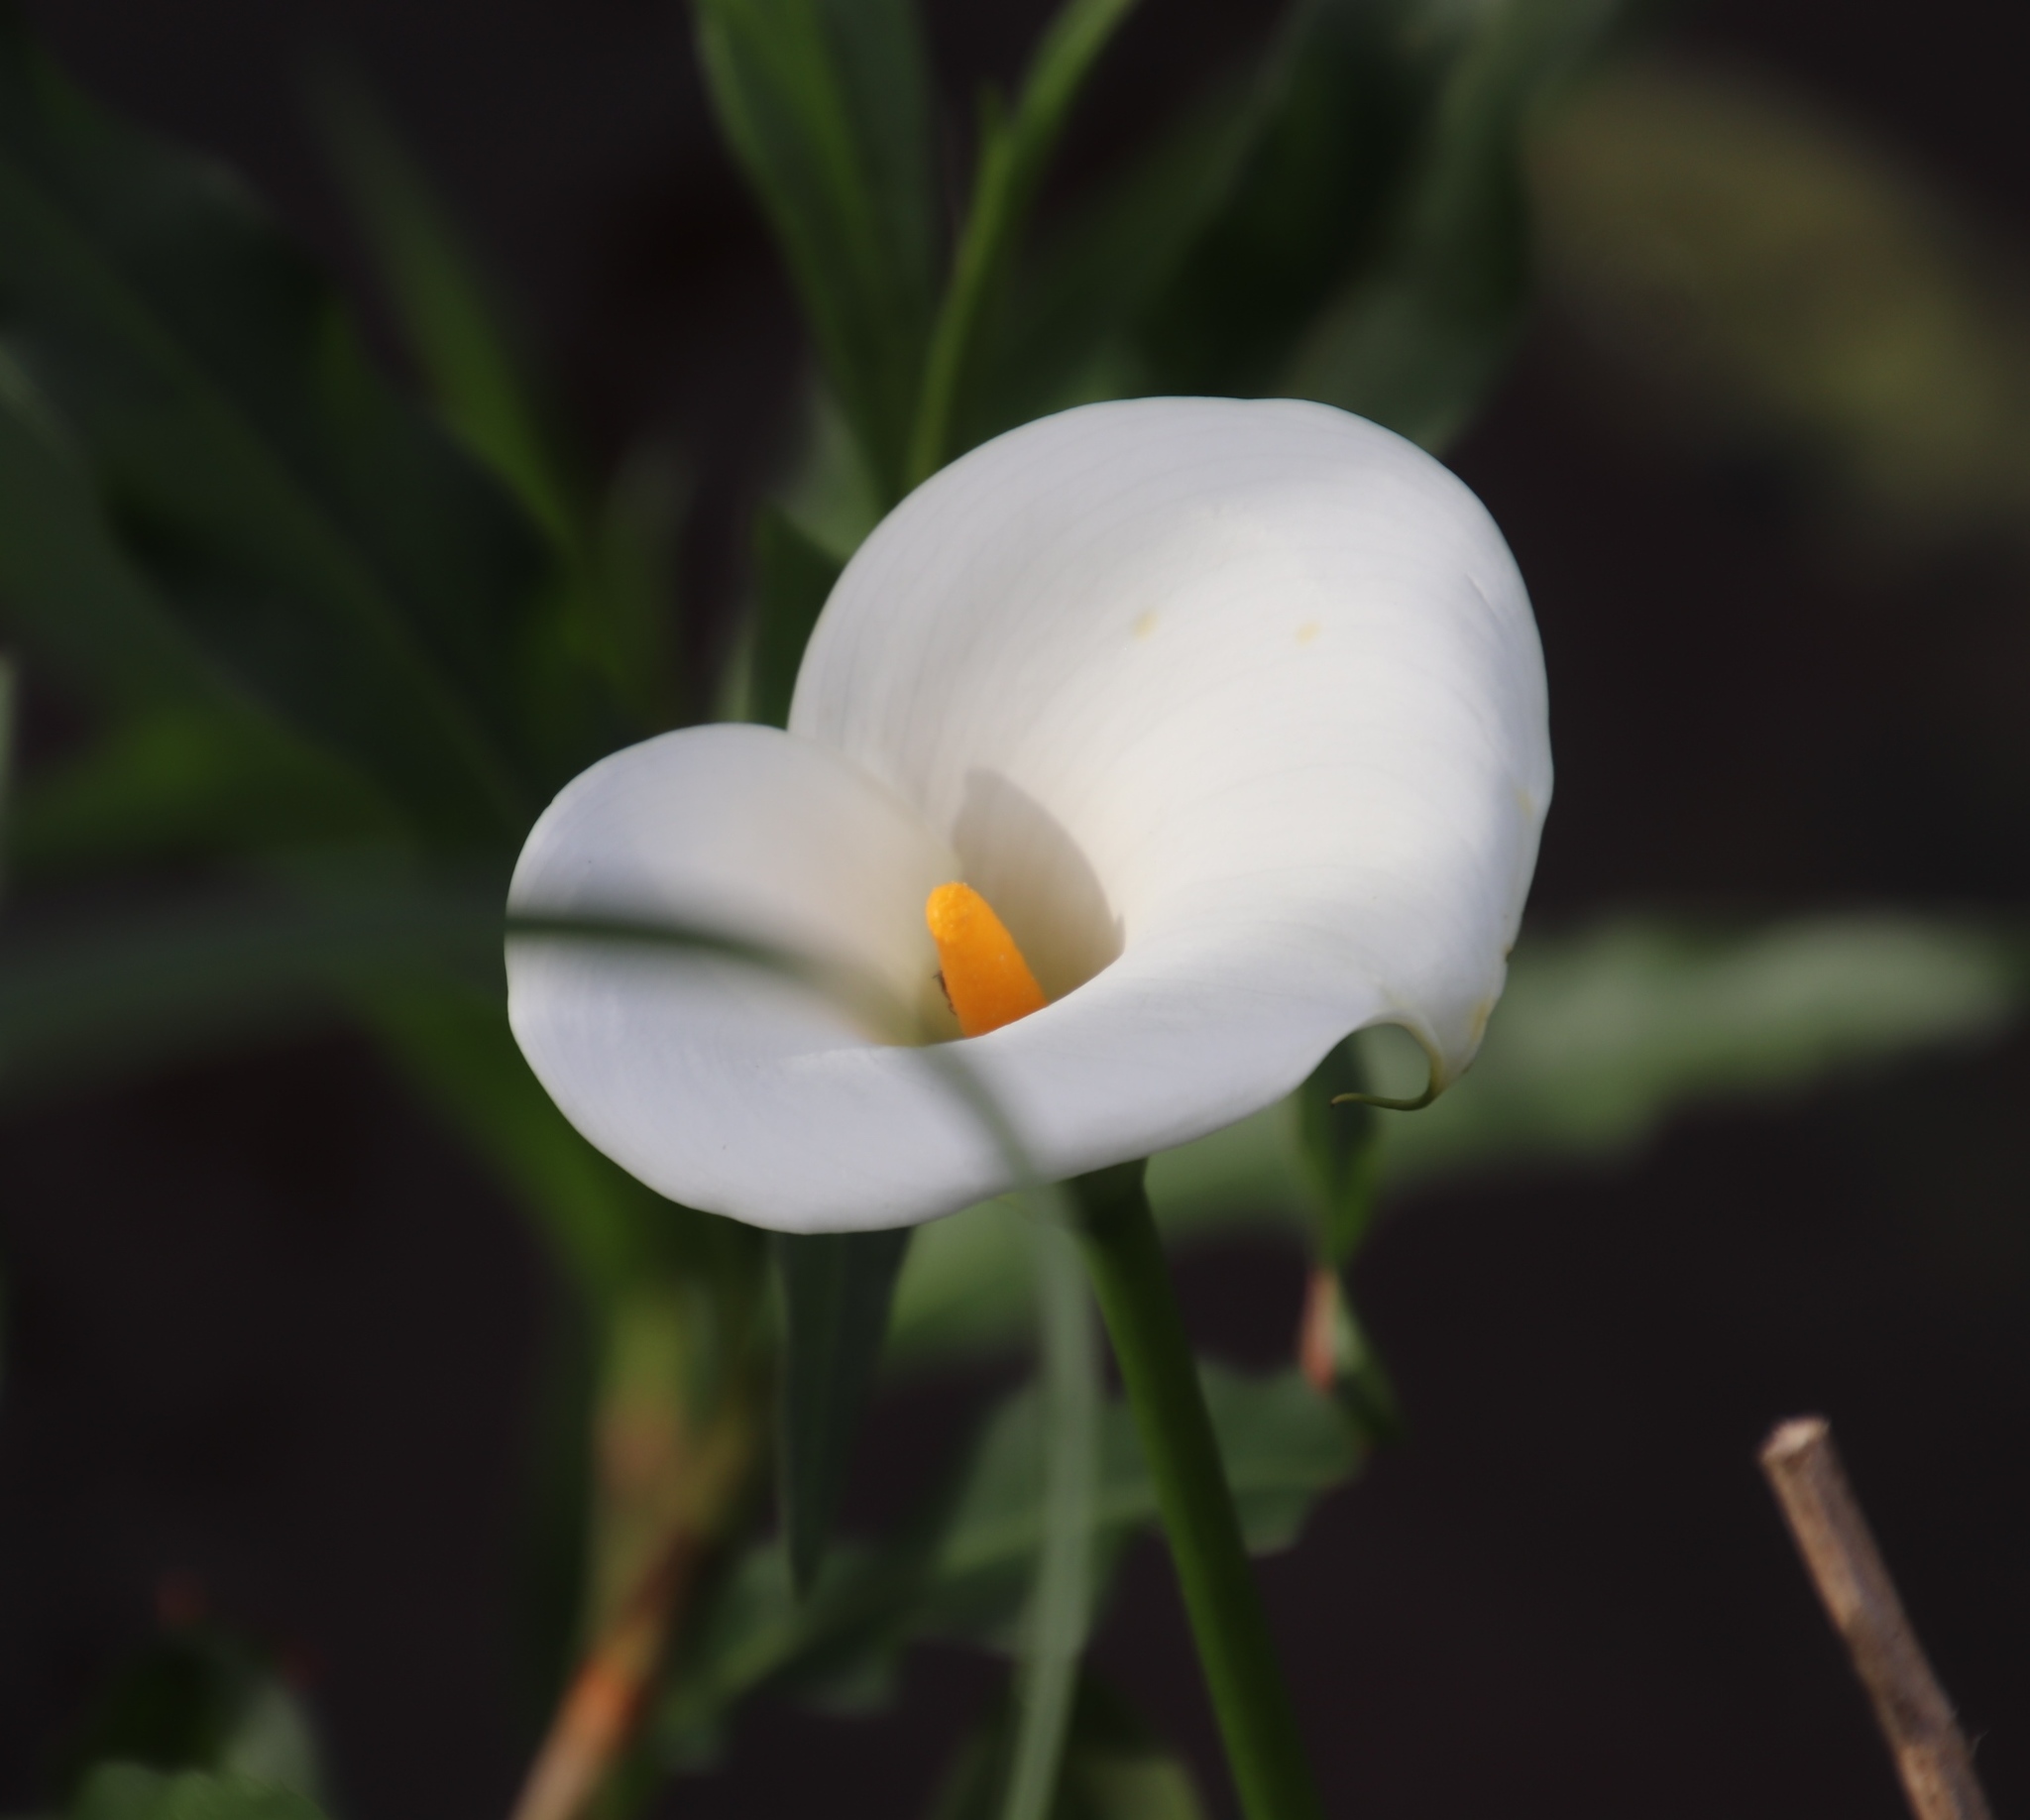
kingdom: Plantae
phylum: Tracheophyta
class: Liliopsida
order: Alismatales
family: Araceae
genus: Zantedeschia
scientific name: Zantedeschia aethiopica
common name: Altar-lily
